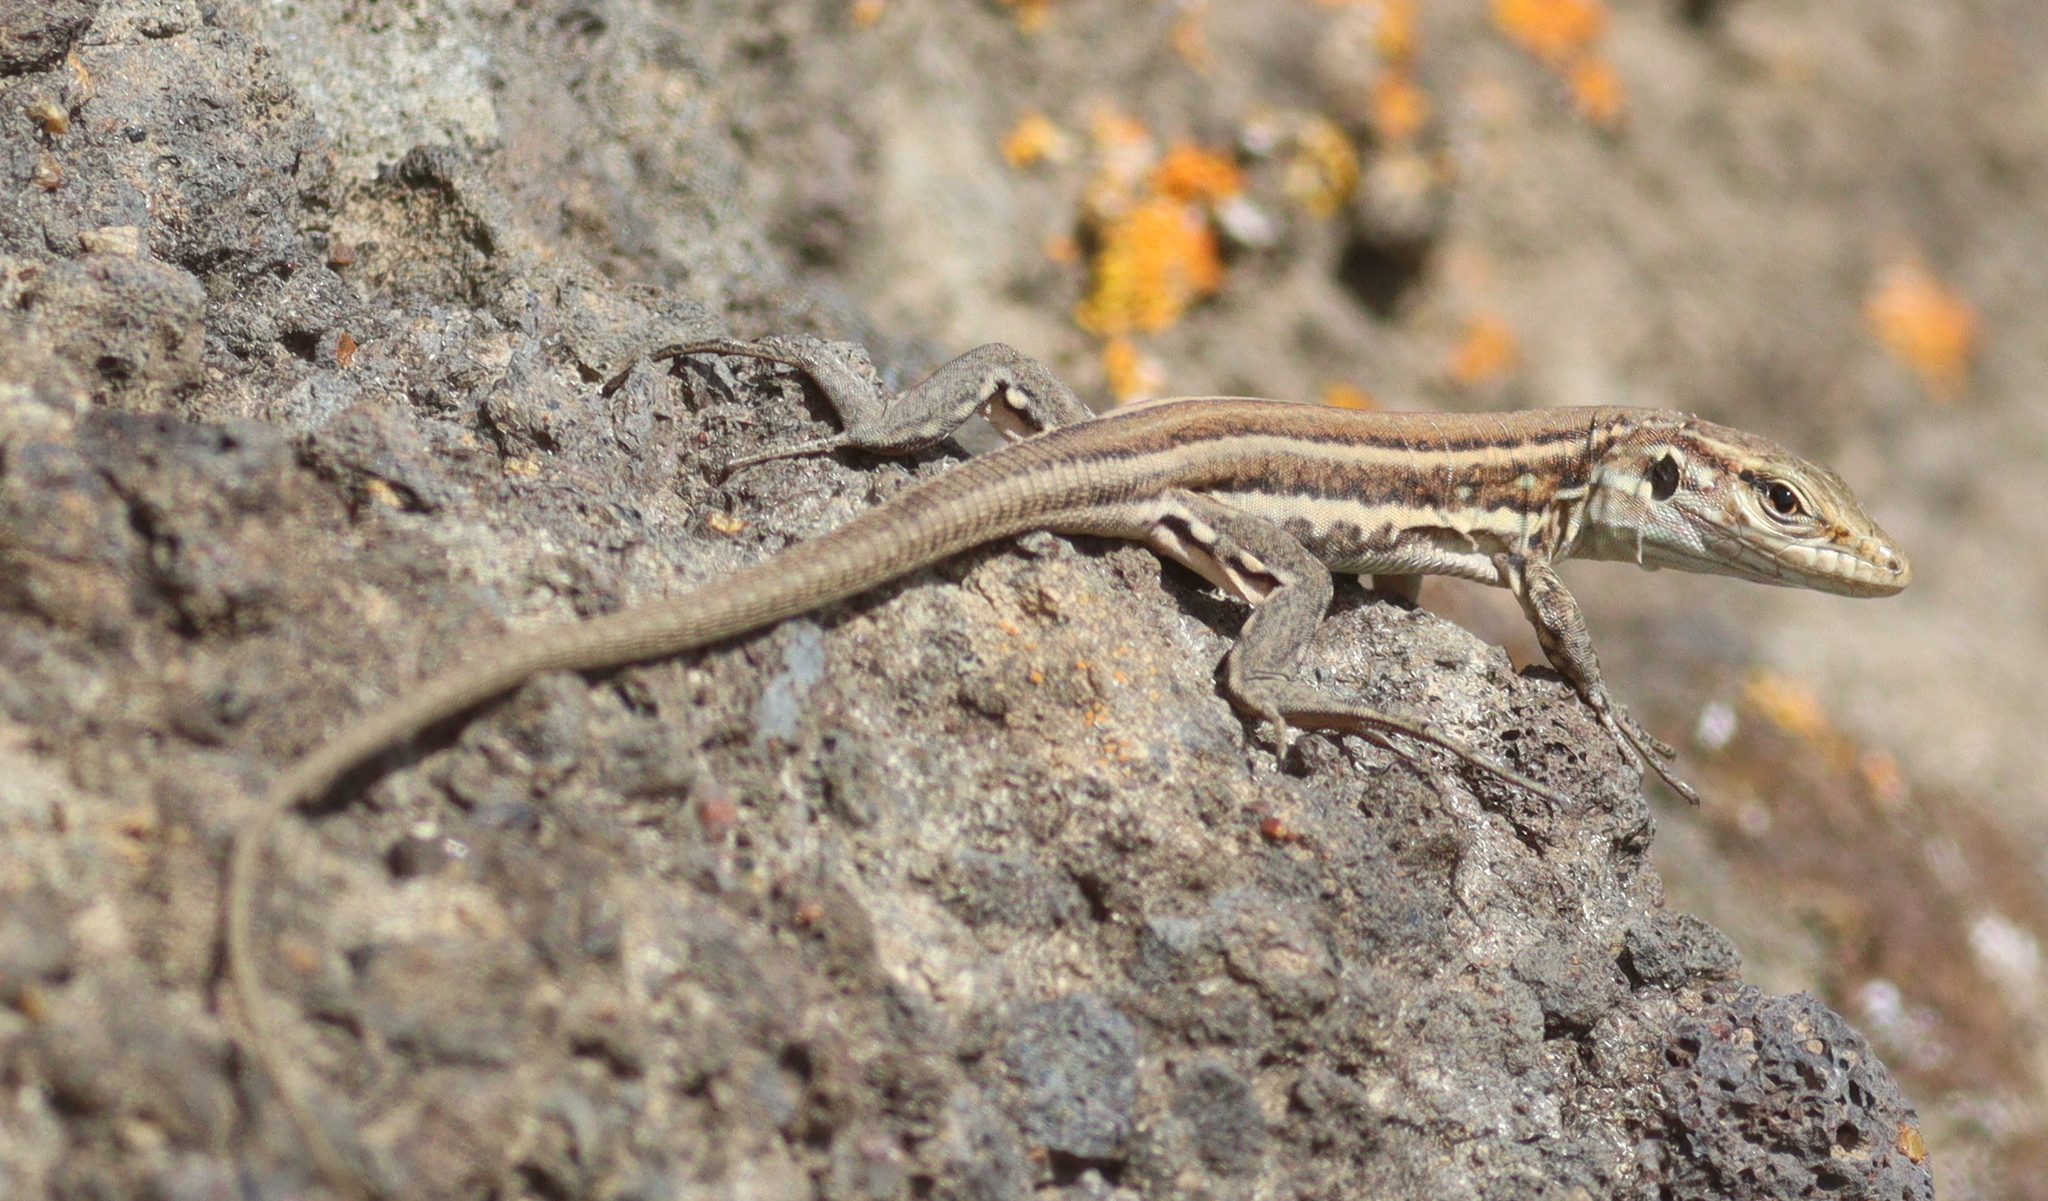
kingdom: Animalia
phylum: Chordata
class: Squamata
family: Lacertidae
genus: Gallotia
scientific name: Gallotia galloti
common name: Gallot's lizard
